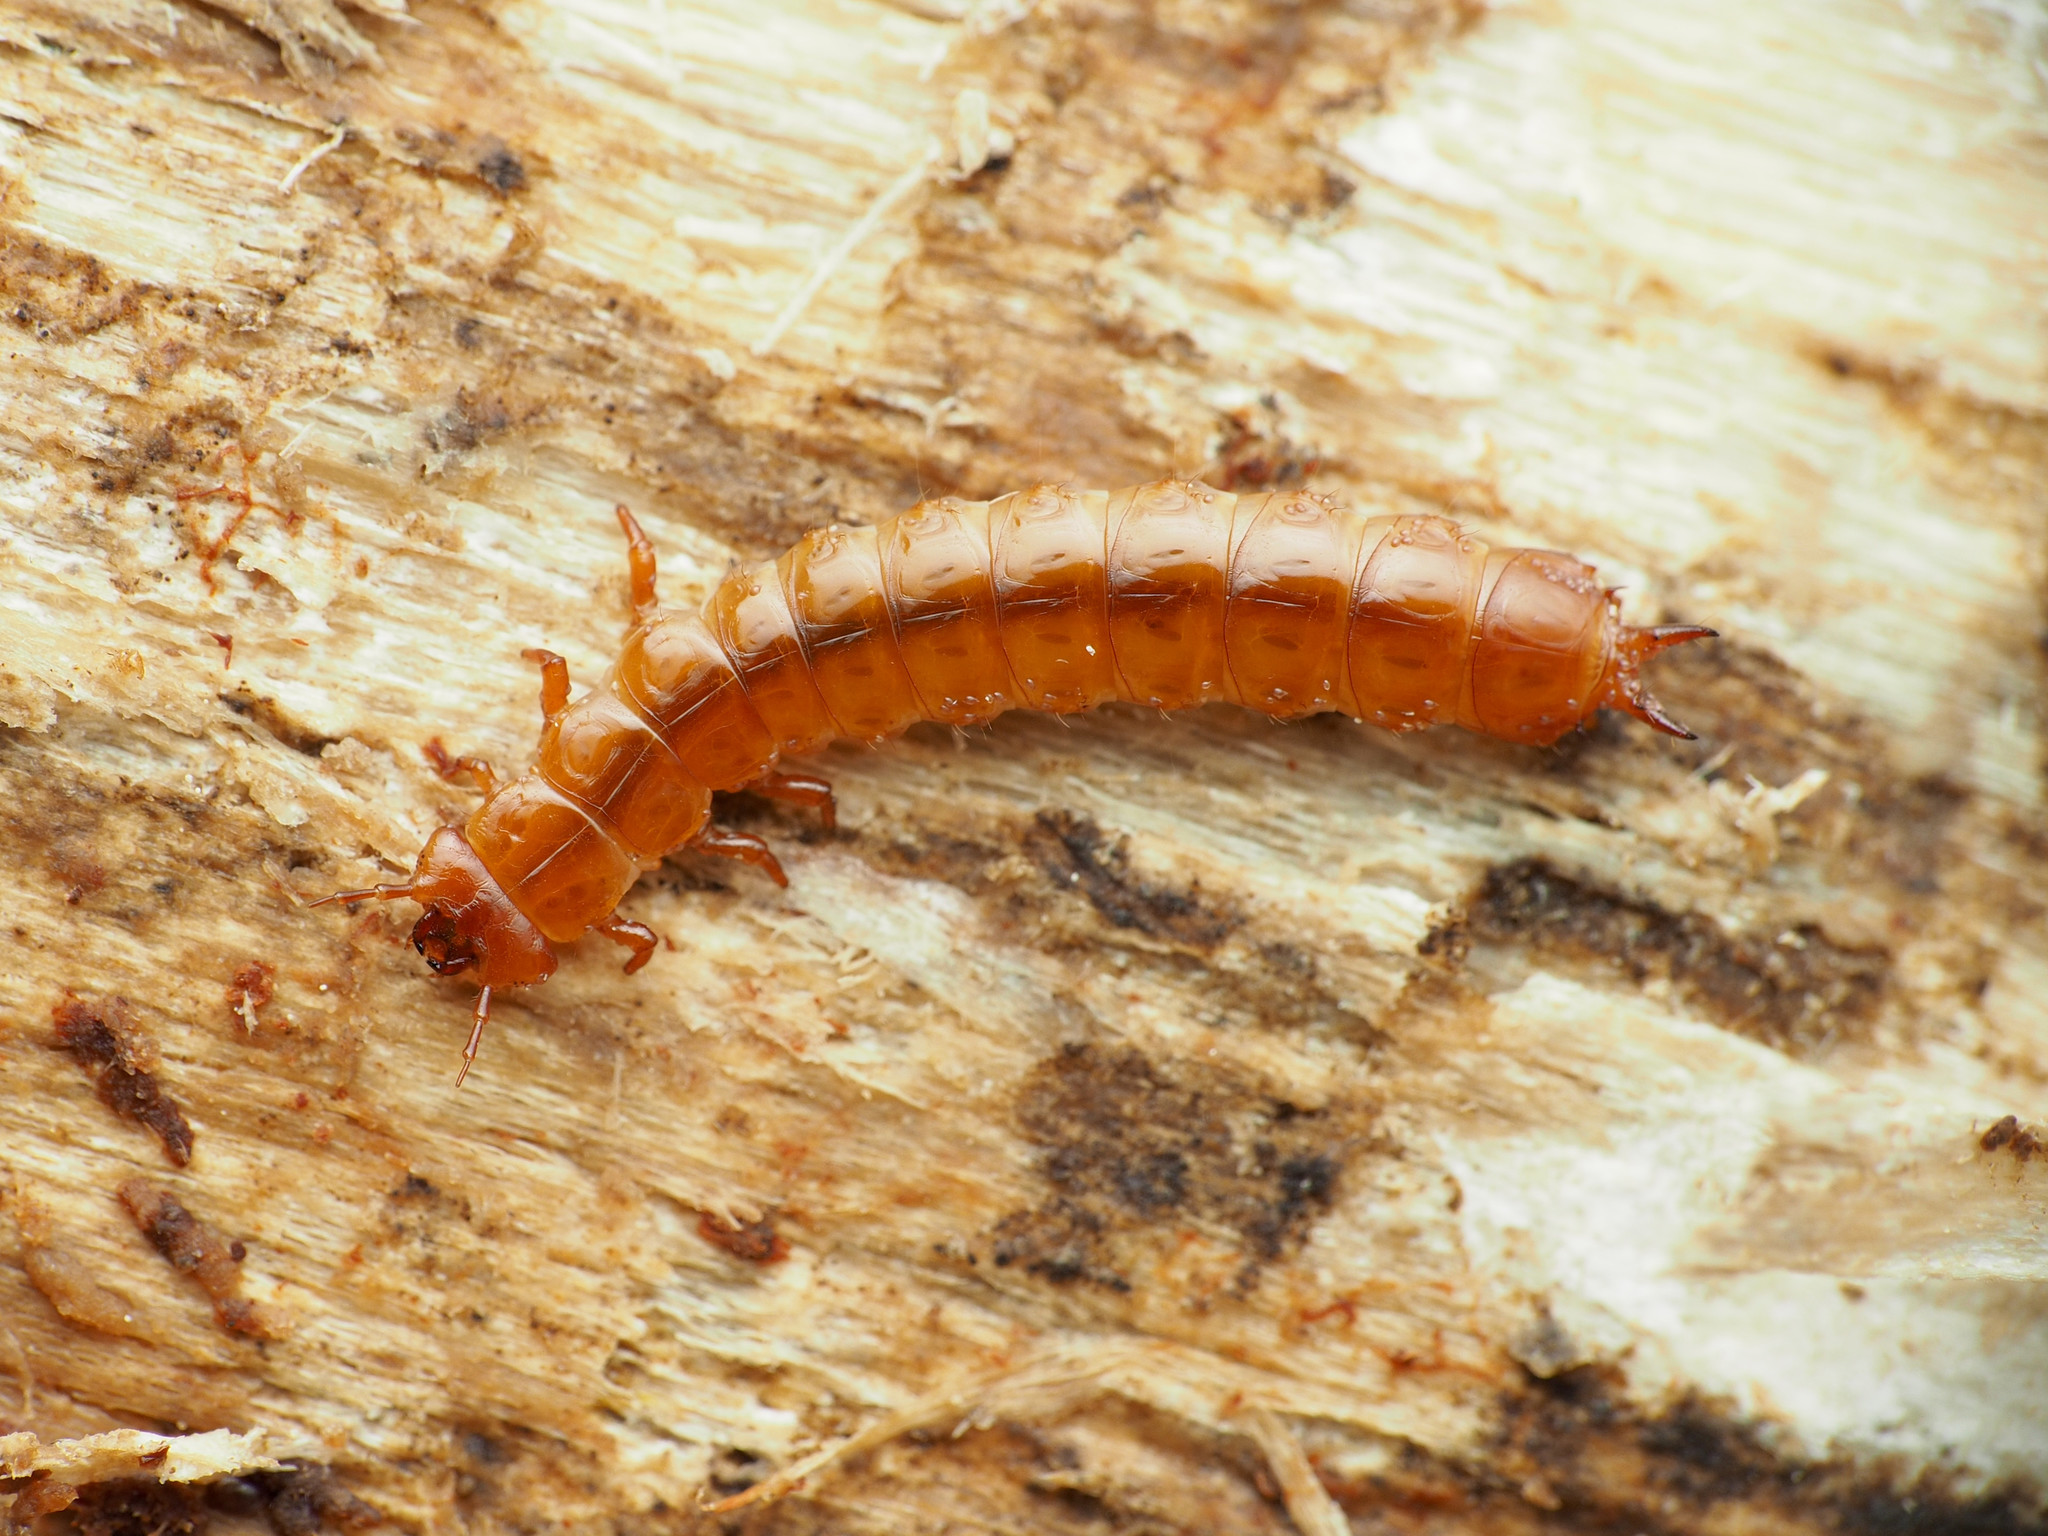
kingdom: Animalia
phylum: Arthropoda
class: Insecta
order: Coleoptera
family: Cucujidae
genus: Cucujus
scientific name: Cucujus clavipes
